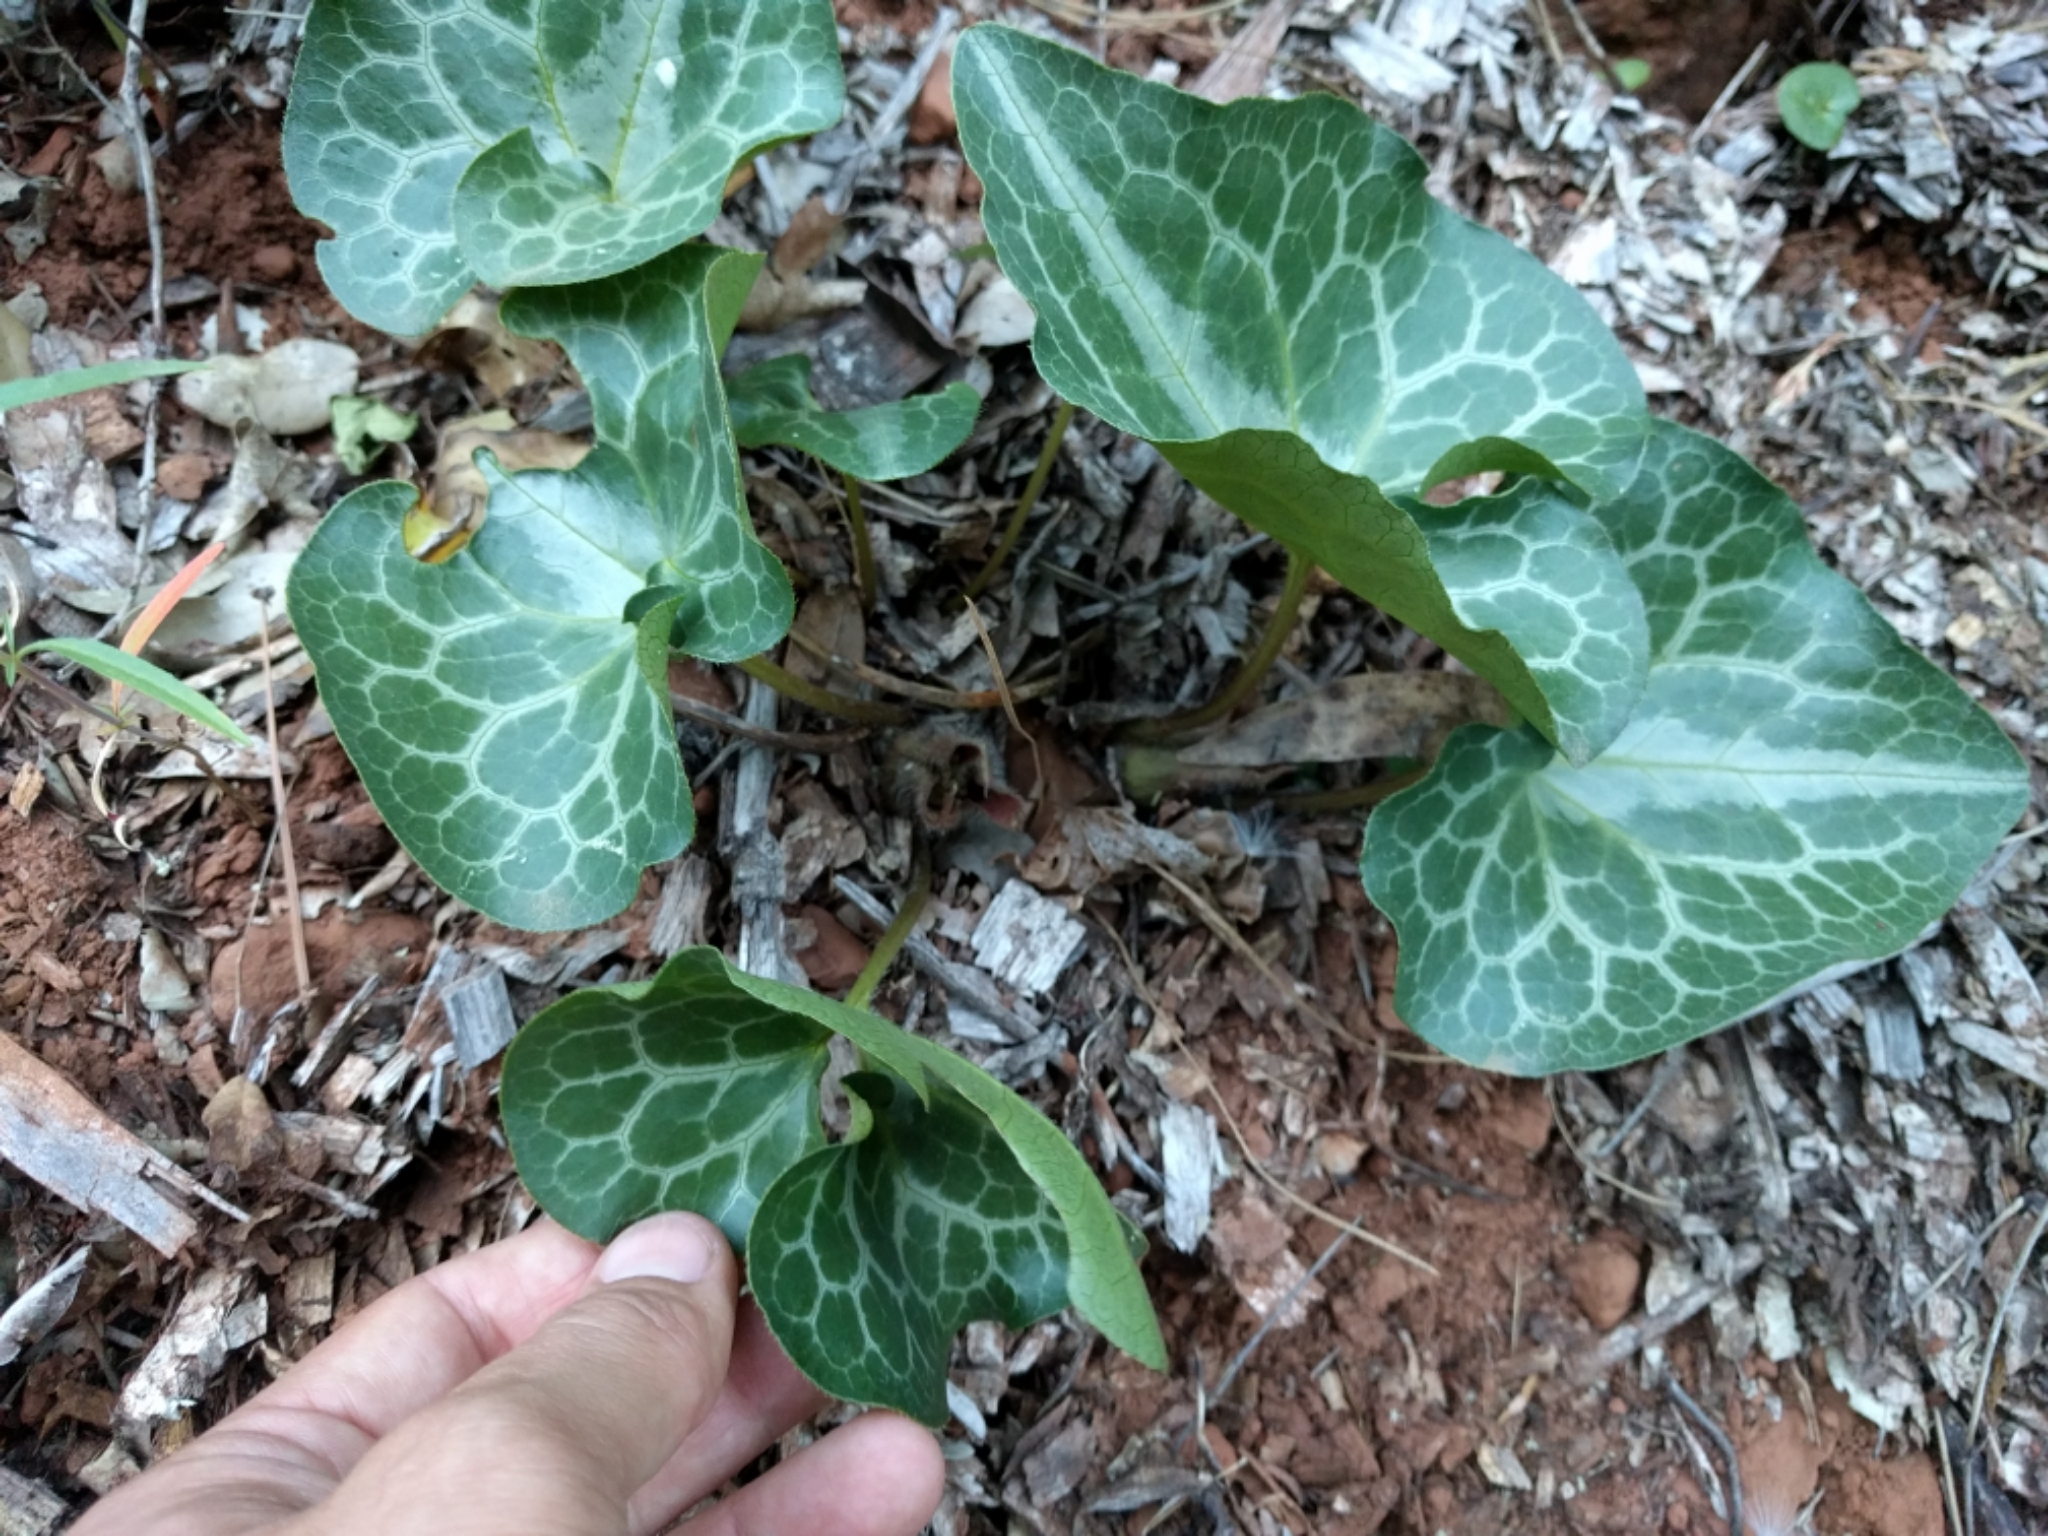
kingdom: Plantae
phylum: Tracheophyta
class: Magnoliopsida
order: Piperales
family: Aristolochiaceae
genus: Asarum
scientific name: Asarum hartwegii
